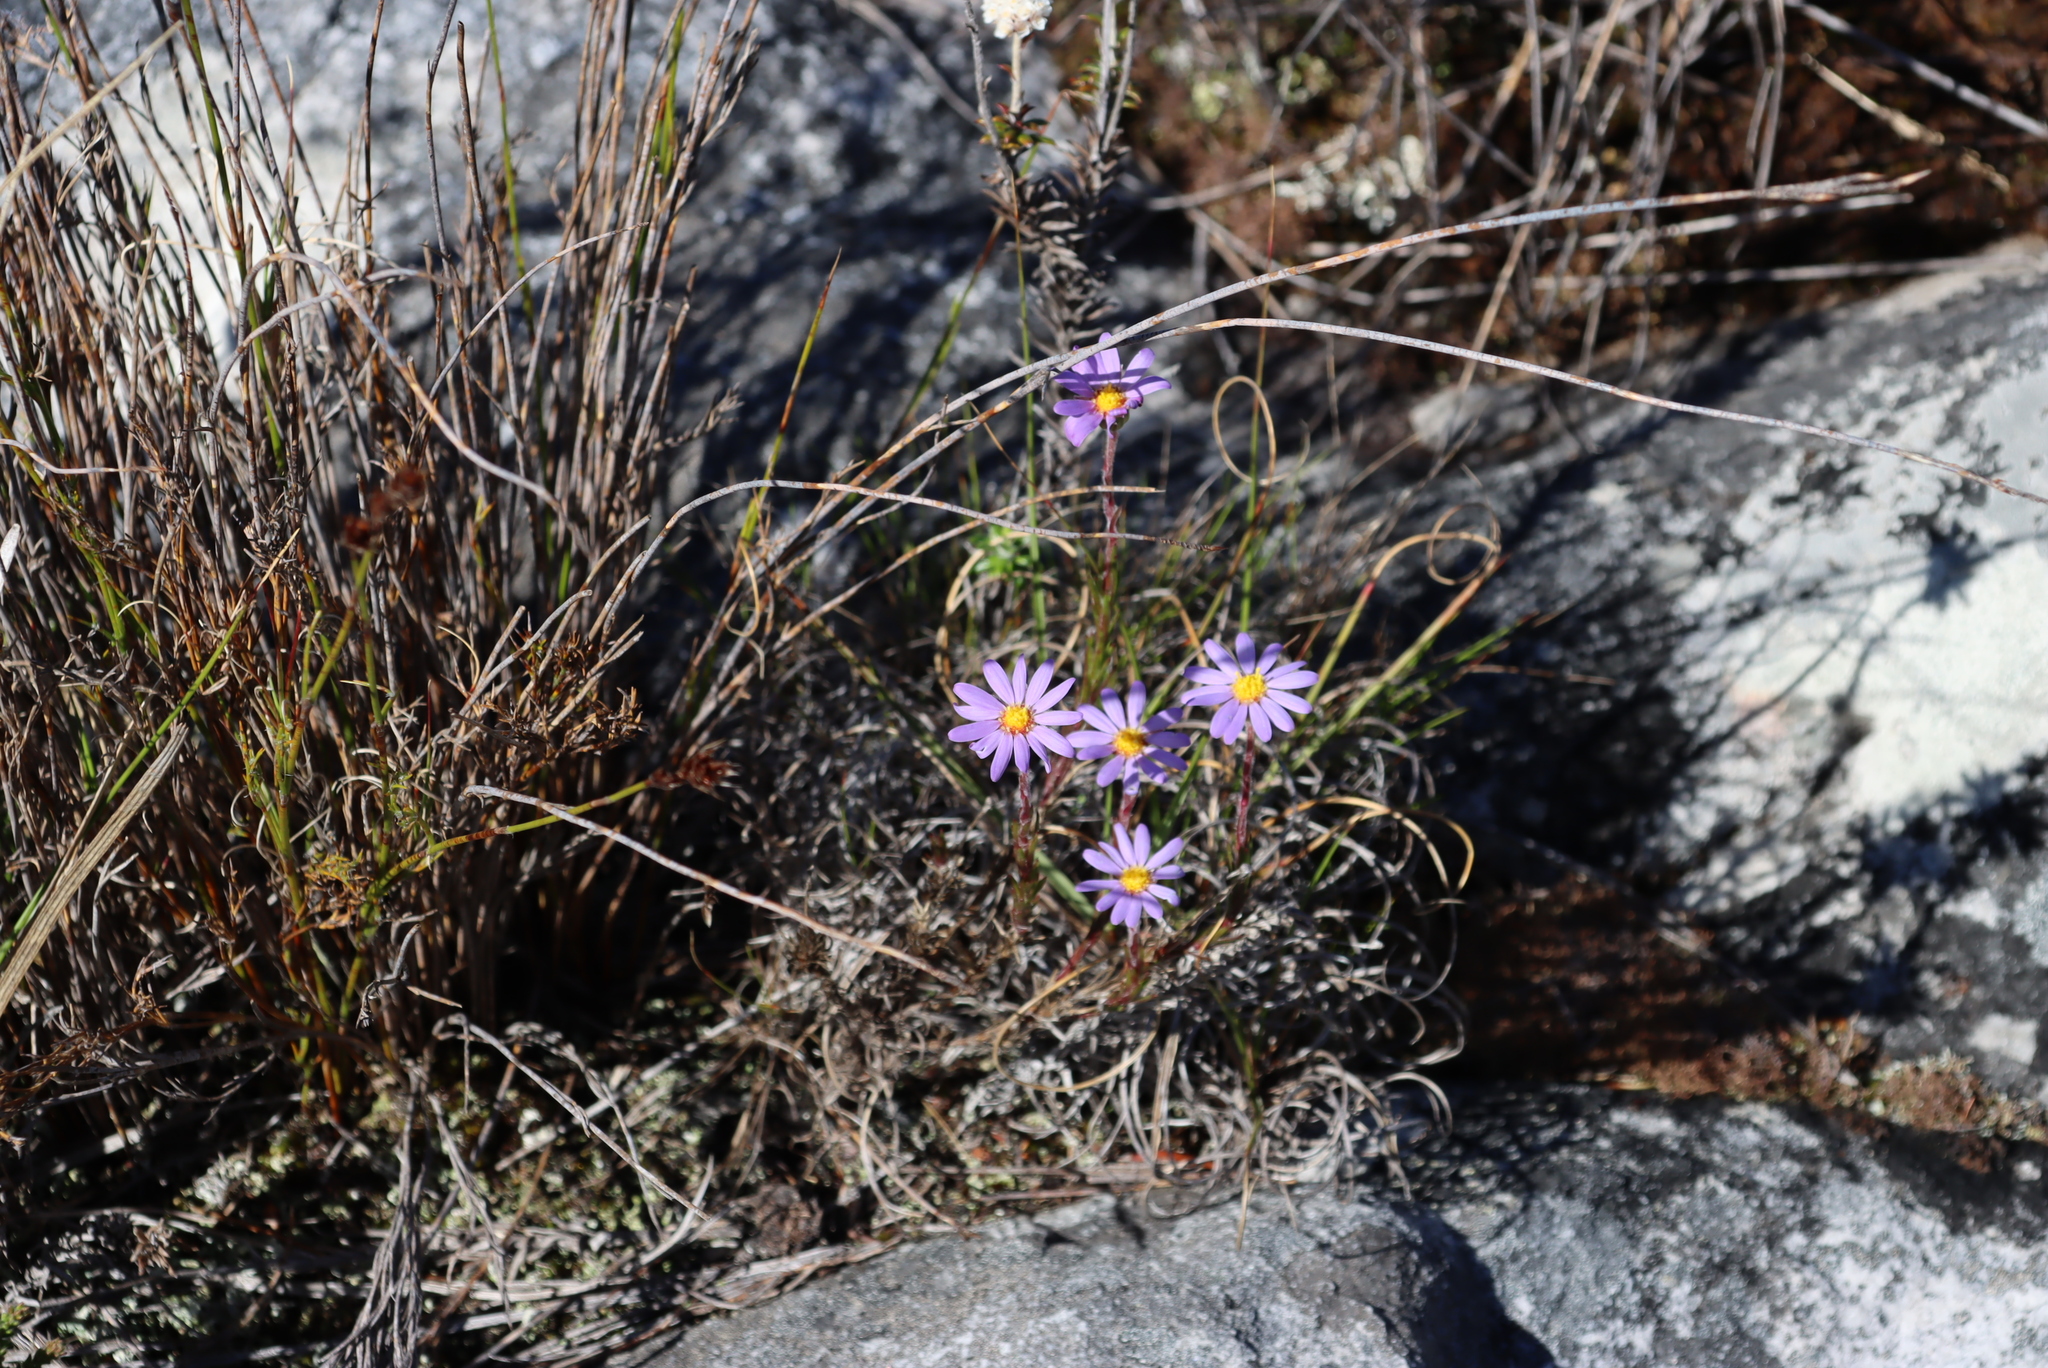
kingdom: Plantae
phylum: Tracheophyta
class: Magnoliopsida
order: Asterales
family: Asteraceae
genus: Zyrphelis
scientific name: Zyrphelis taxifolia
